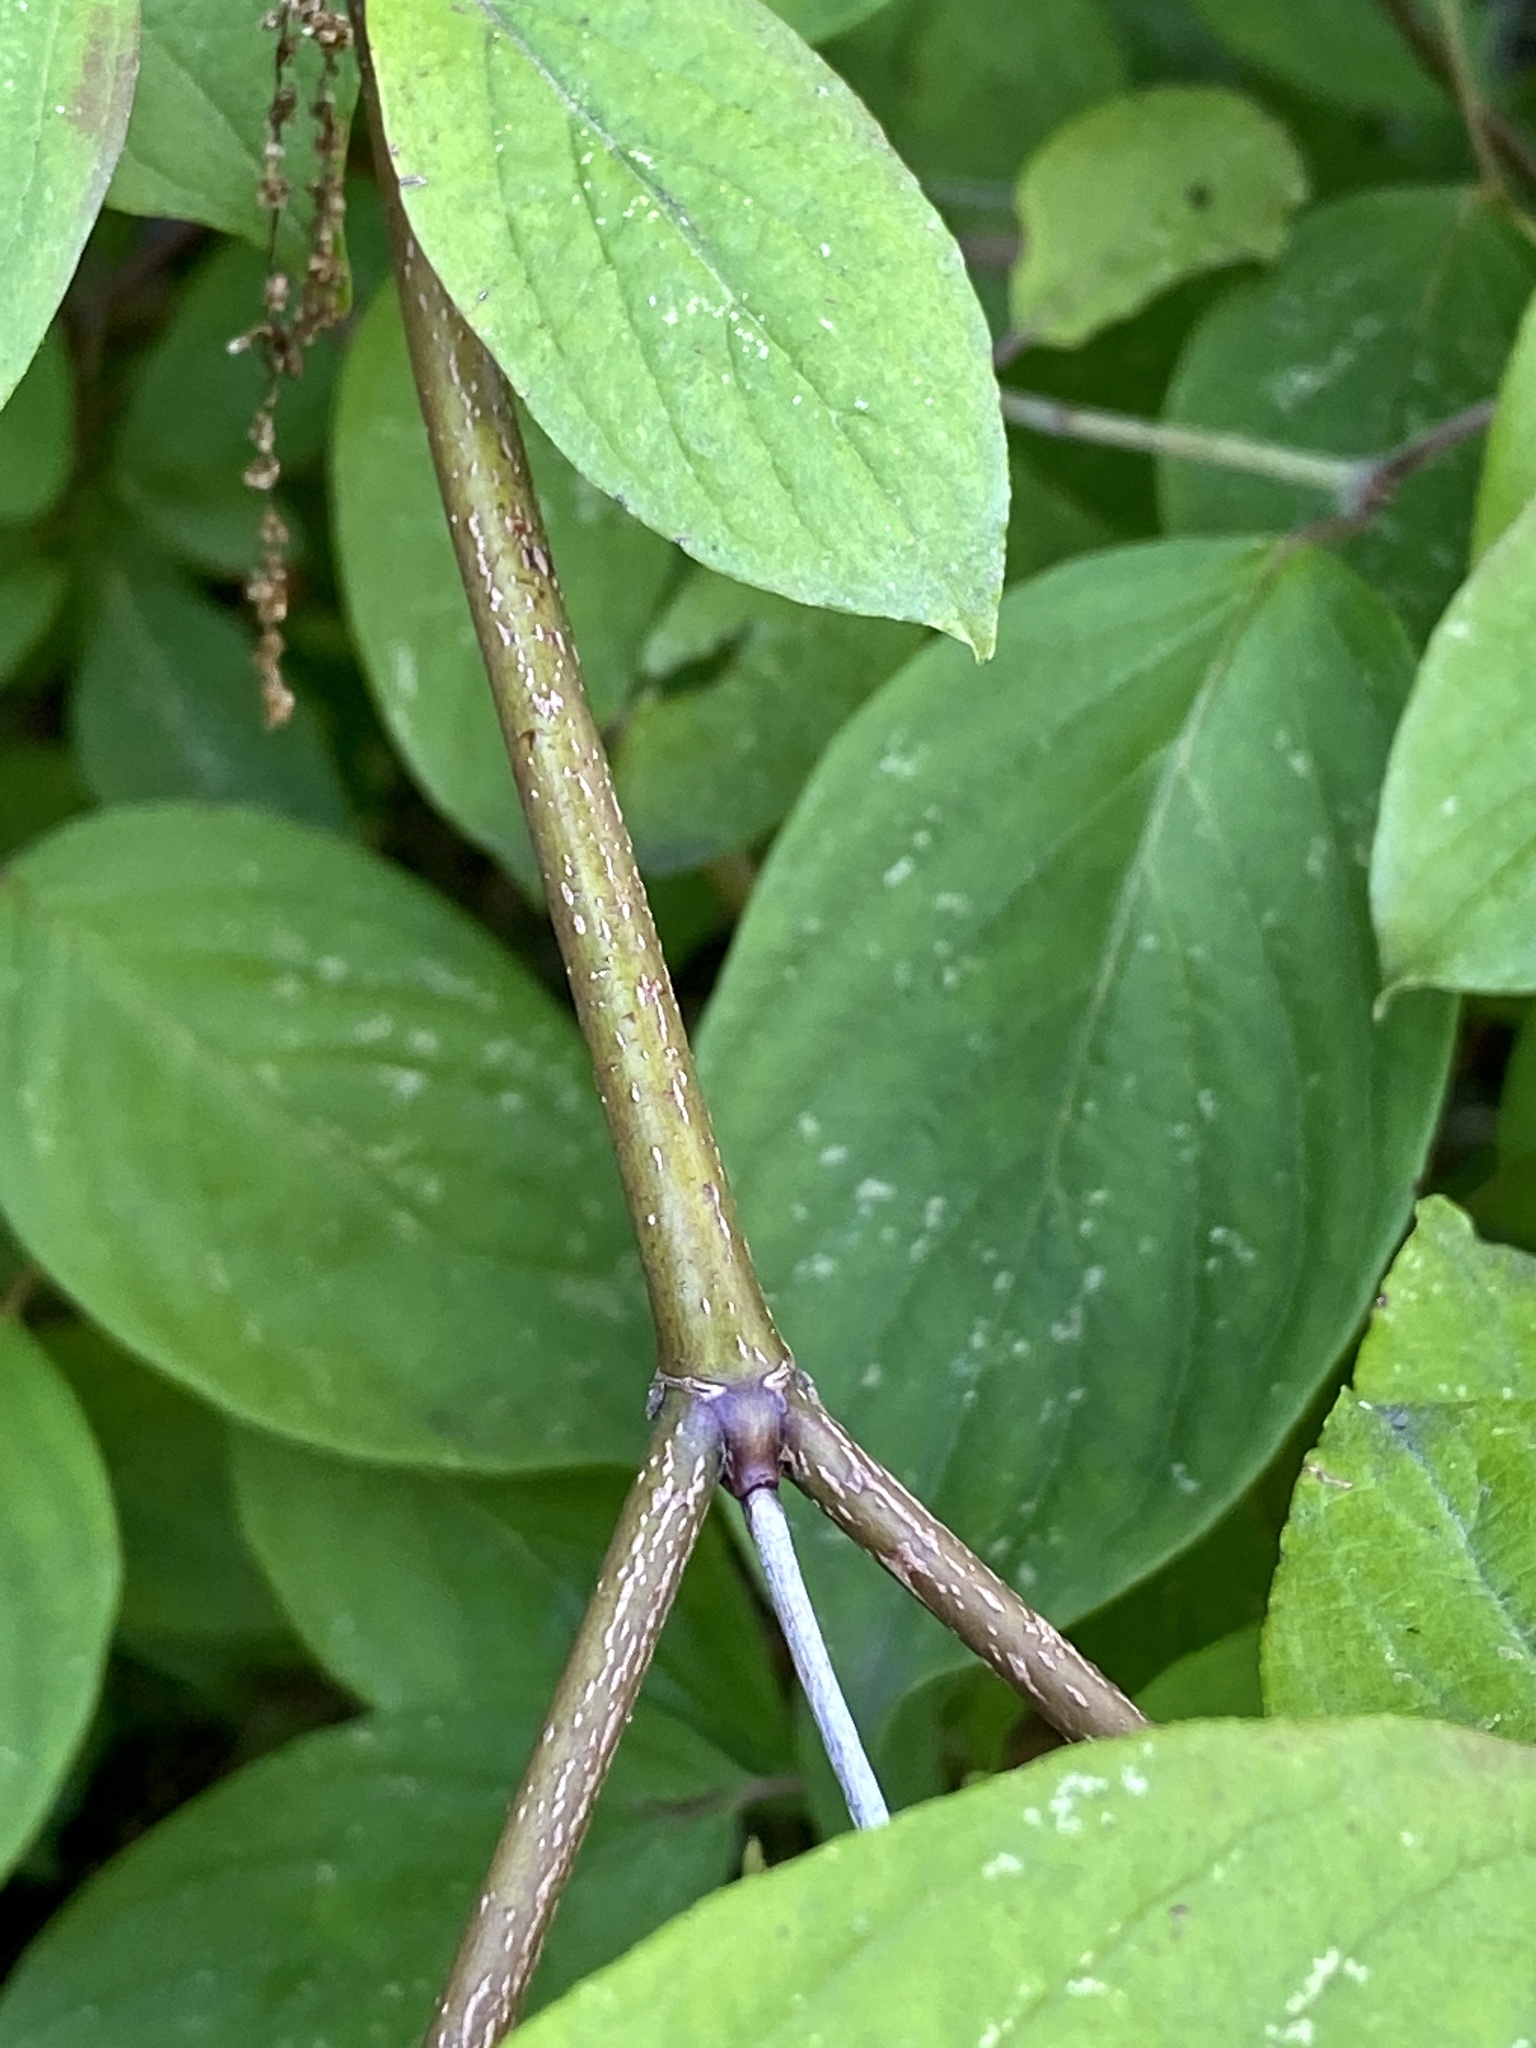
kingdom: Plantae
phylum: Tracheophyta
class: Magnoliopsida
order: Cornales
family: Cornaceae
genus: Cornus
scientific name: Cornus amomum
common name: Silky dogwood
